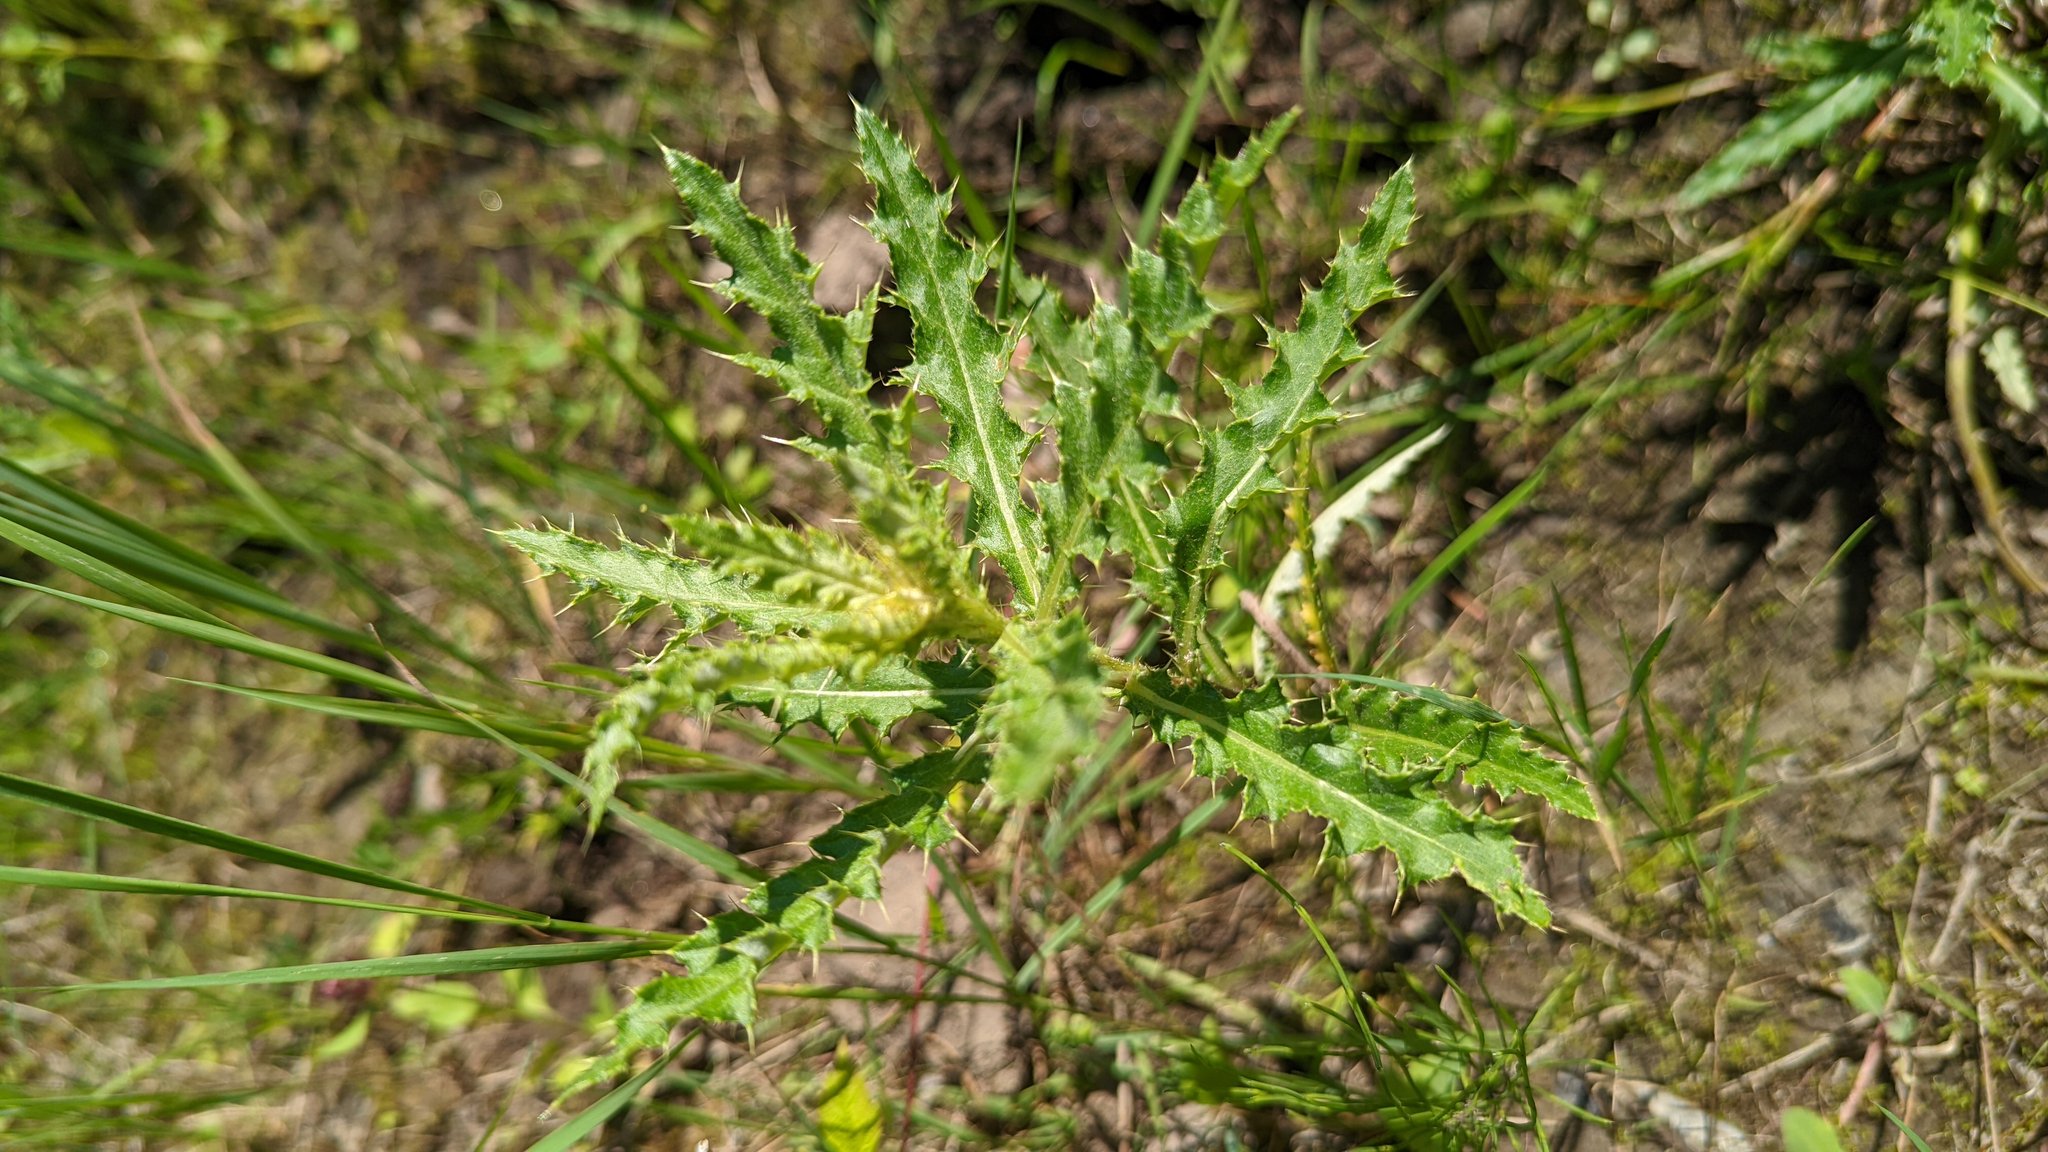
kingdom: Plantae
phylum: Tracheophyta
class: Magnoliopsida
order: Asterales
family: Asteraceae
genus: Cirsium
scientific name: Cirsium arvense
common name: Creeping thistle
